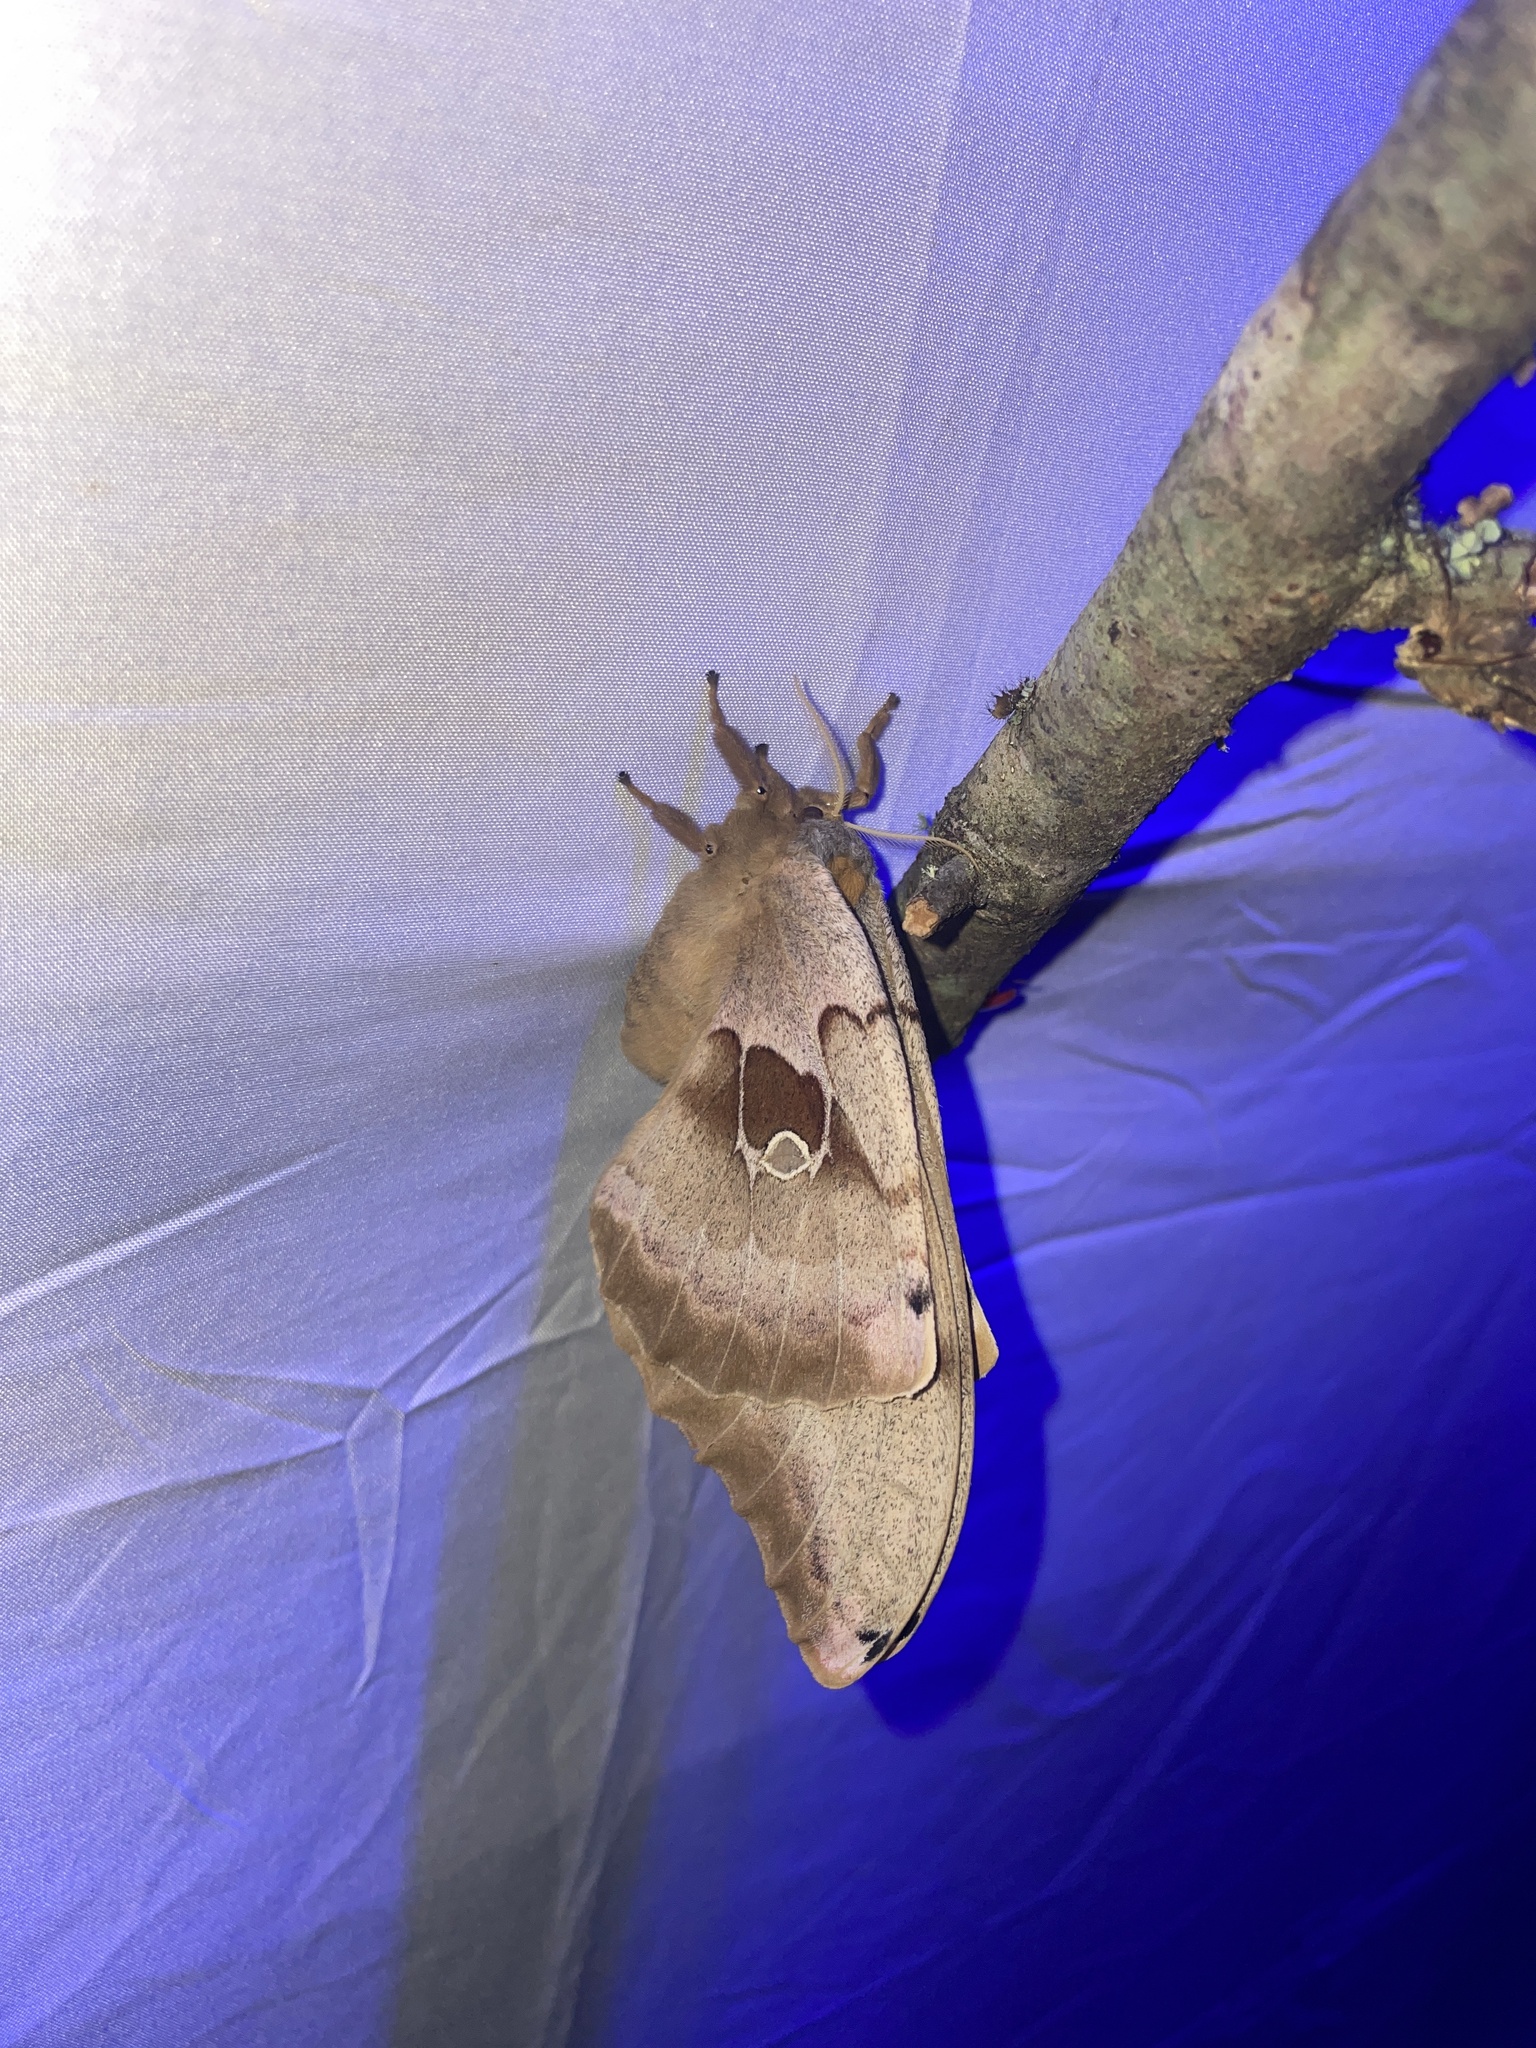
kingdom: Animalia
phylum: Arthropoda
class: Insecta
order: Lepidoptera
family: Saturniidae
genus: Antheraea
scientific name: Antheraea polyphemus
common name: Polyphemus moth
